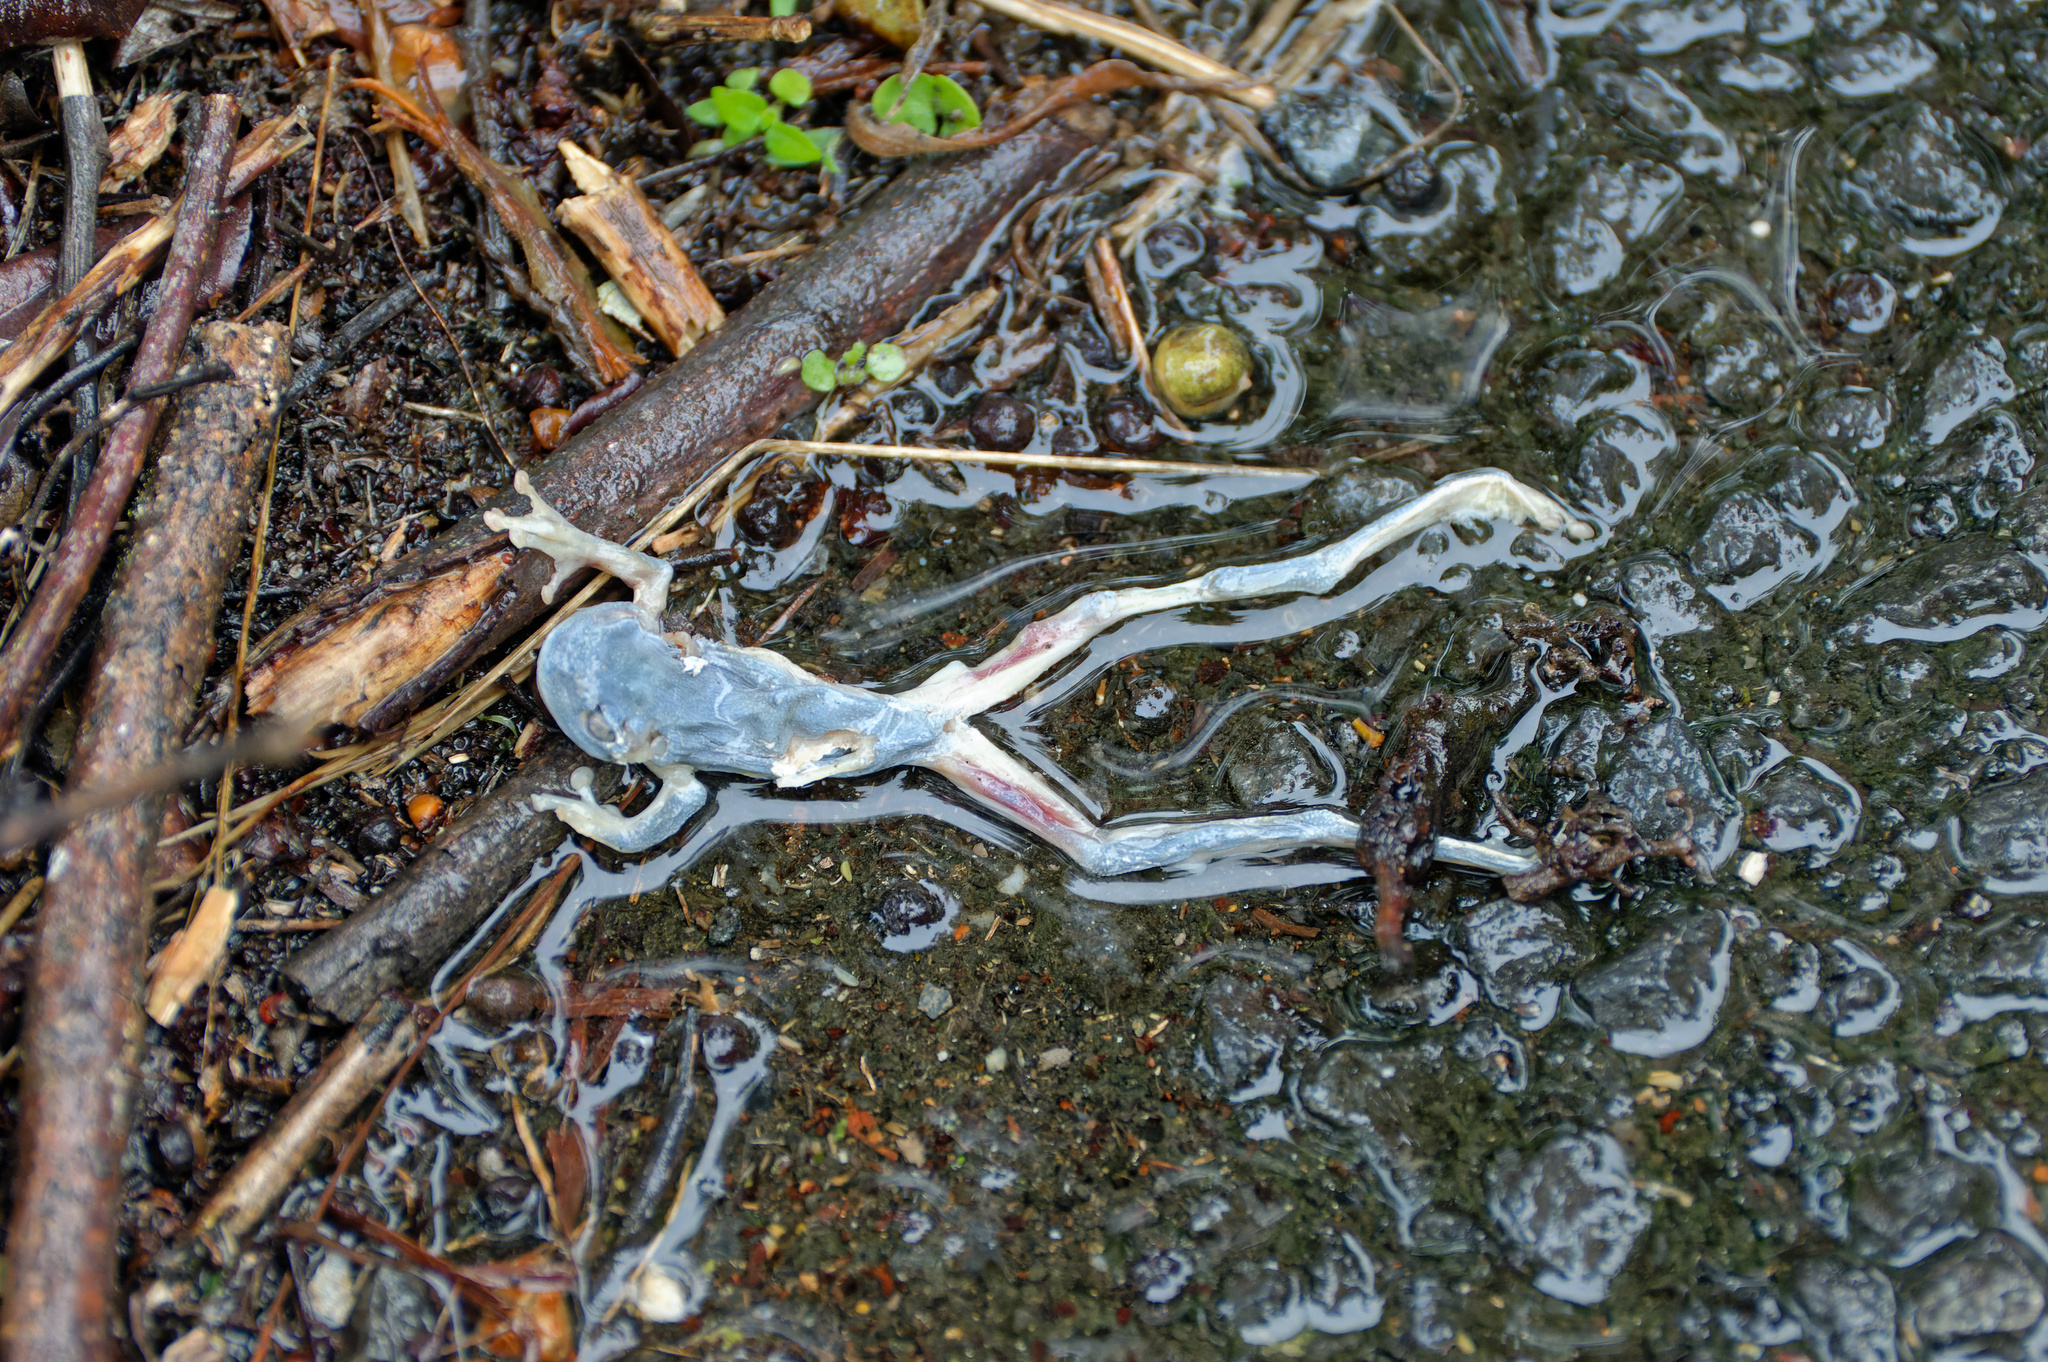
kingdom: Animalia
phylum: Chordata
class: Amphibia
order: Anura
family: Pelodryadidae
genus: Ranoidea
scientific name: Ranoidea gracilenta
